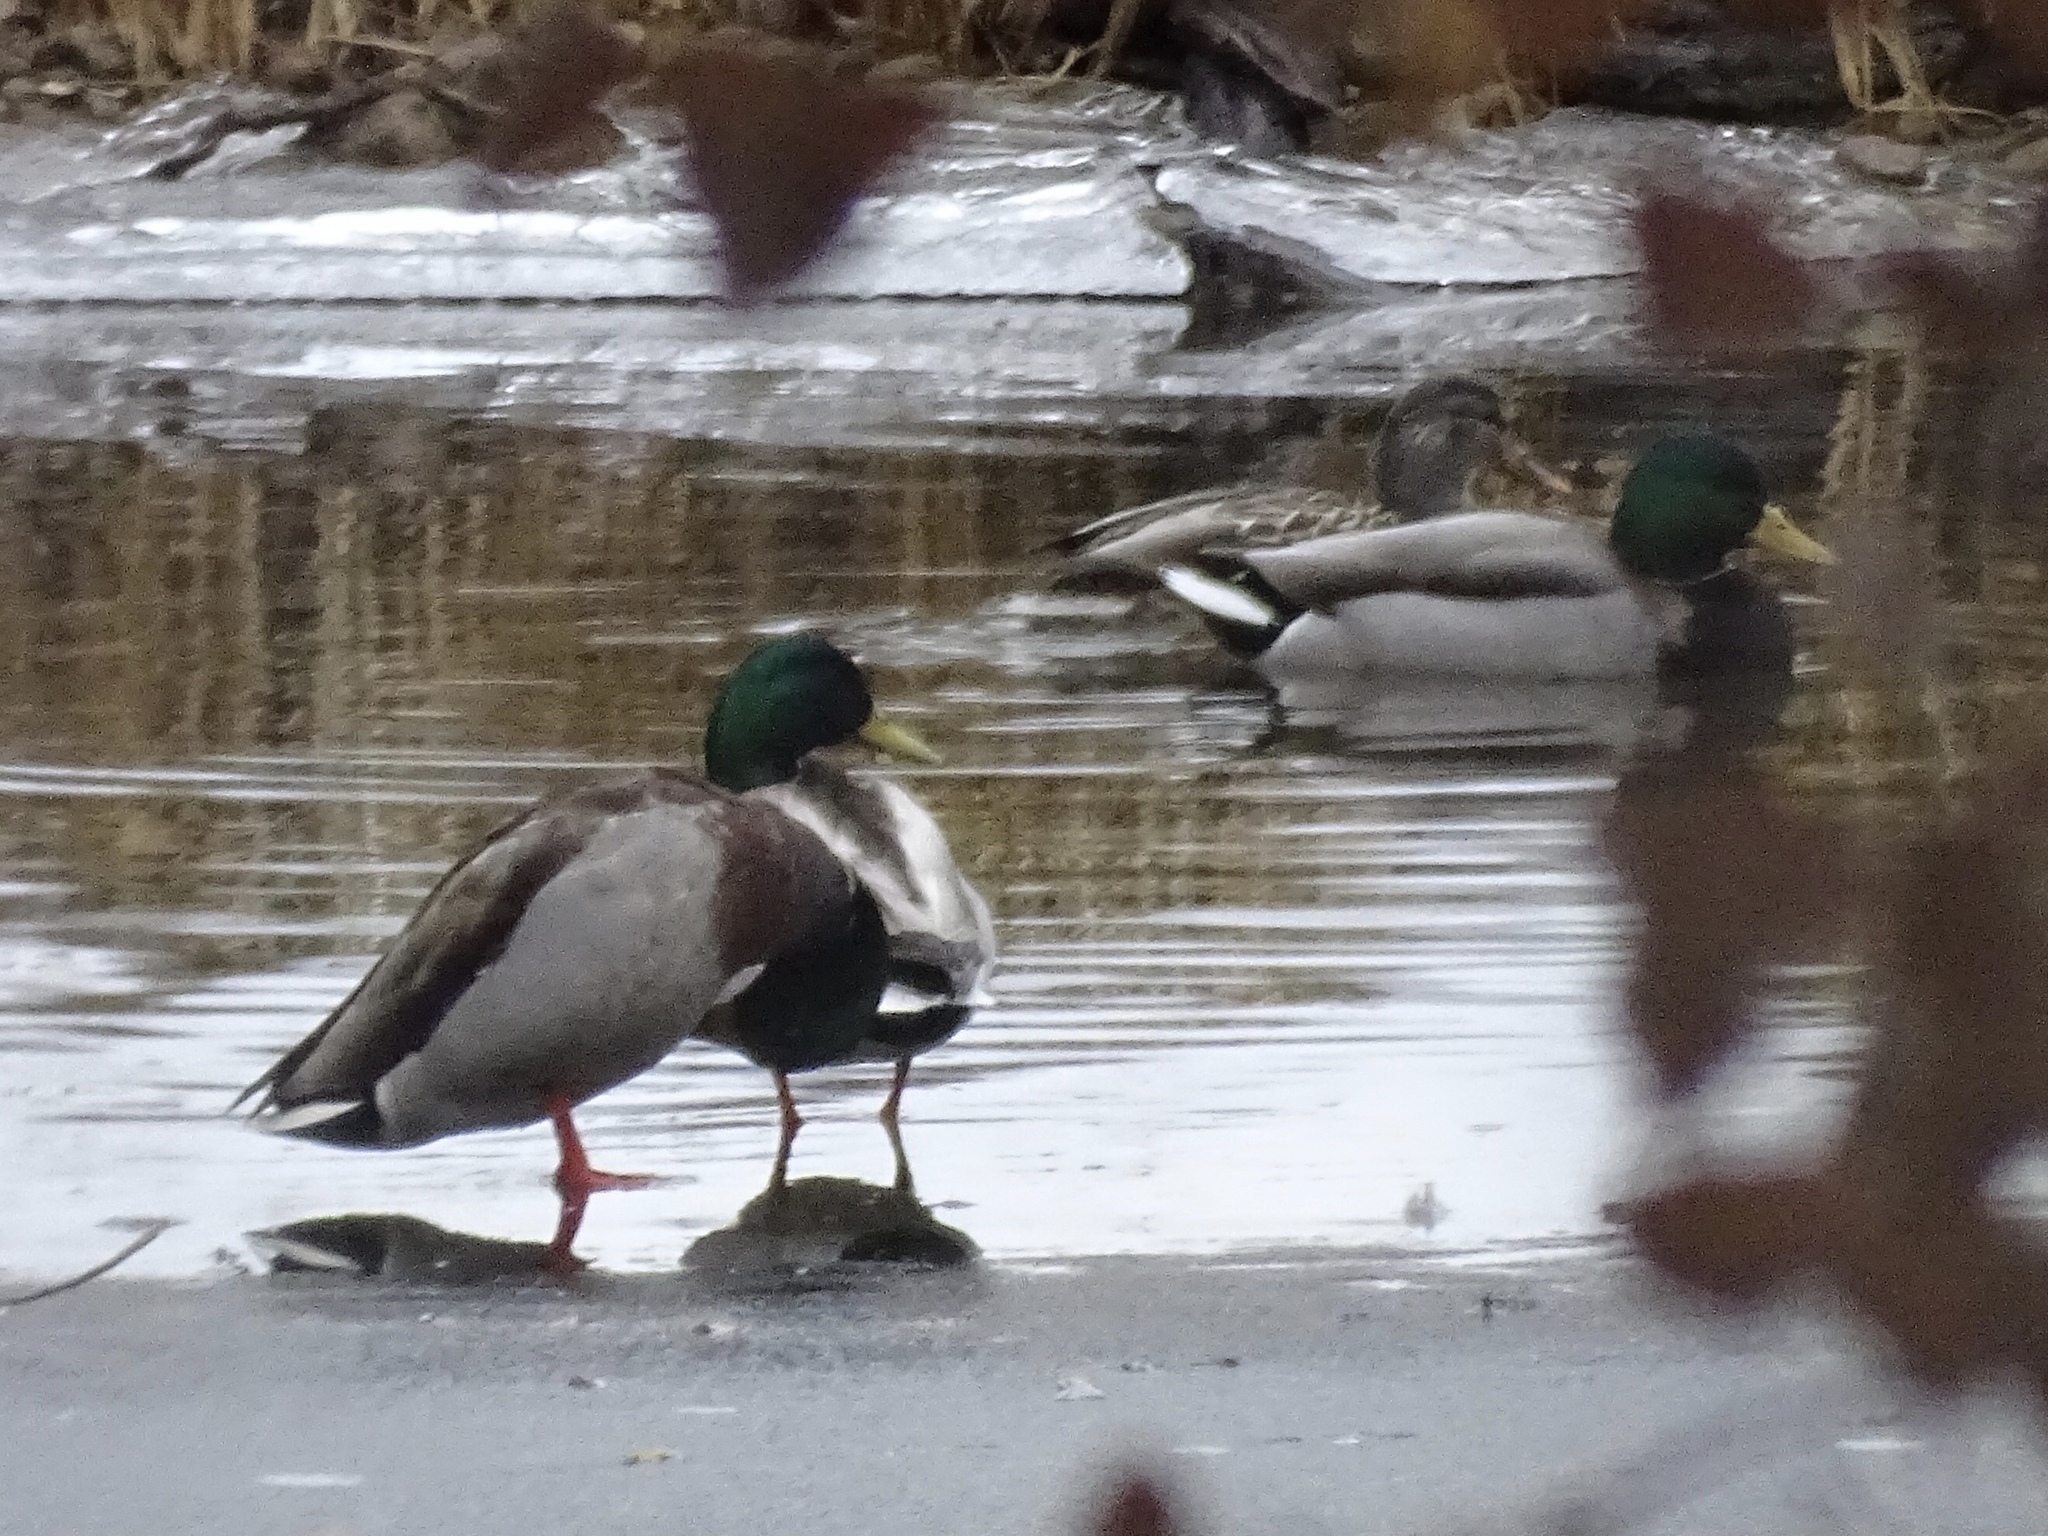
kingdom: Animalia
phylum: Chordata
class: Aves
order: Anseriformes
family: Anatidae
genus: Anas
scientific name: Anas platyrhynchos
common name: Mallard
